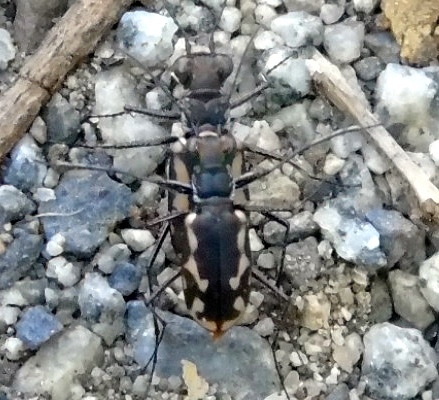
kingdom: Animalia
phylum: Arthropoda
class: Insecta
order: Coleoptera
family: Carabidae
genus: Cicindela
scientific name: Cicindela hydrophoba
